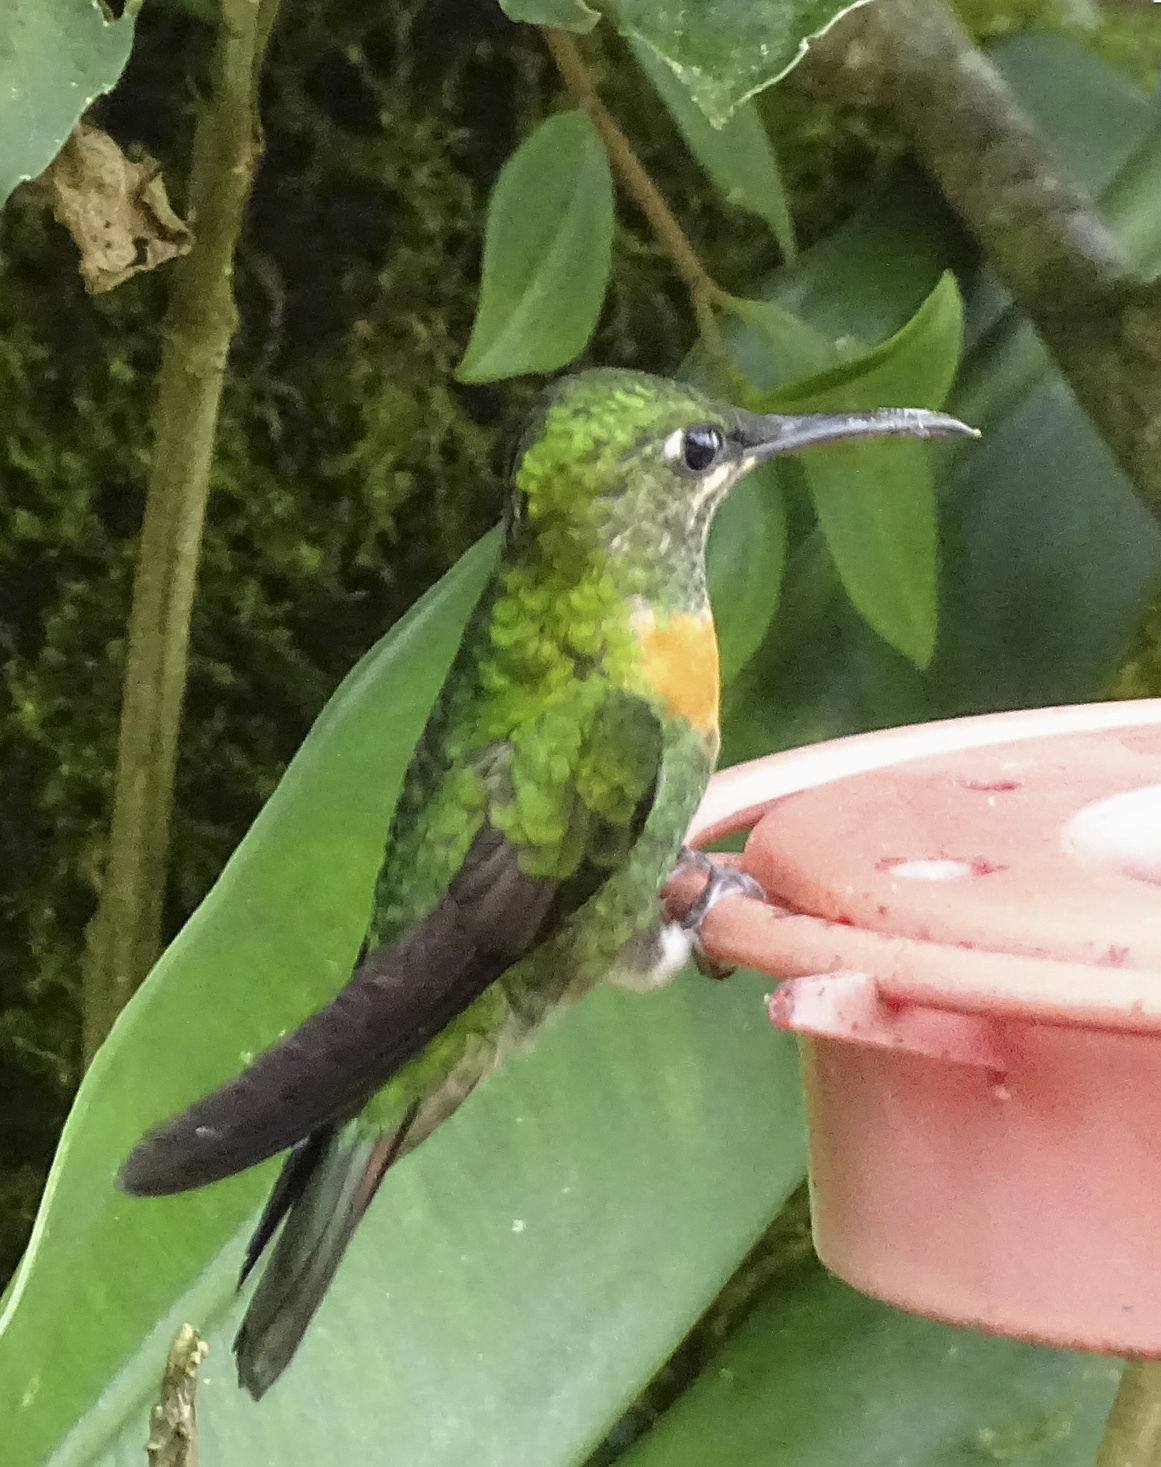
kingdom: Animalia
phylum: Chordata
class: Aves
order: Apodiformes
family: Trochilidae
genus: Heliodoxa
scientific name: Heliodoxa aurescens
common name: Gould's jewelfront
